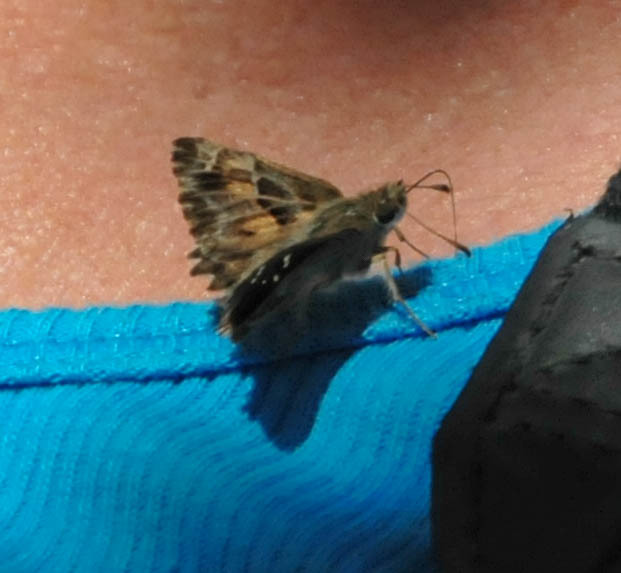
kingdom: Animalia
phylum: Arthropoda
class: Insecta
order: Lepidoptera
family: Hesperiidae
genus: Carcharodus
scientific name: Carcharodus alceae
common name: Mallow skipper
